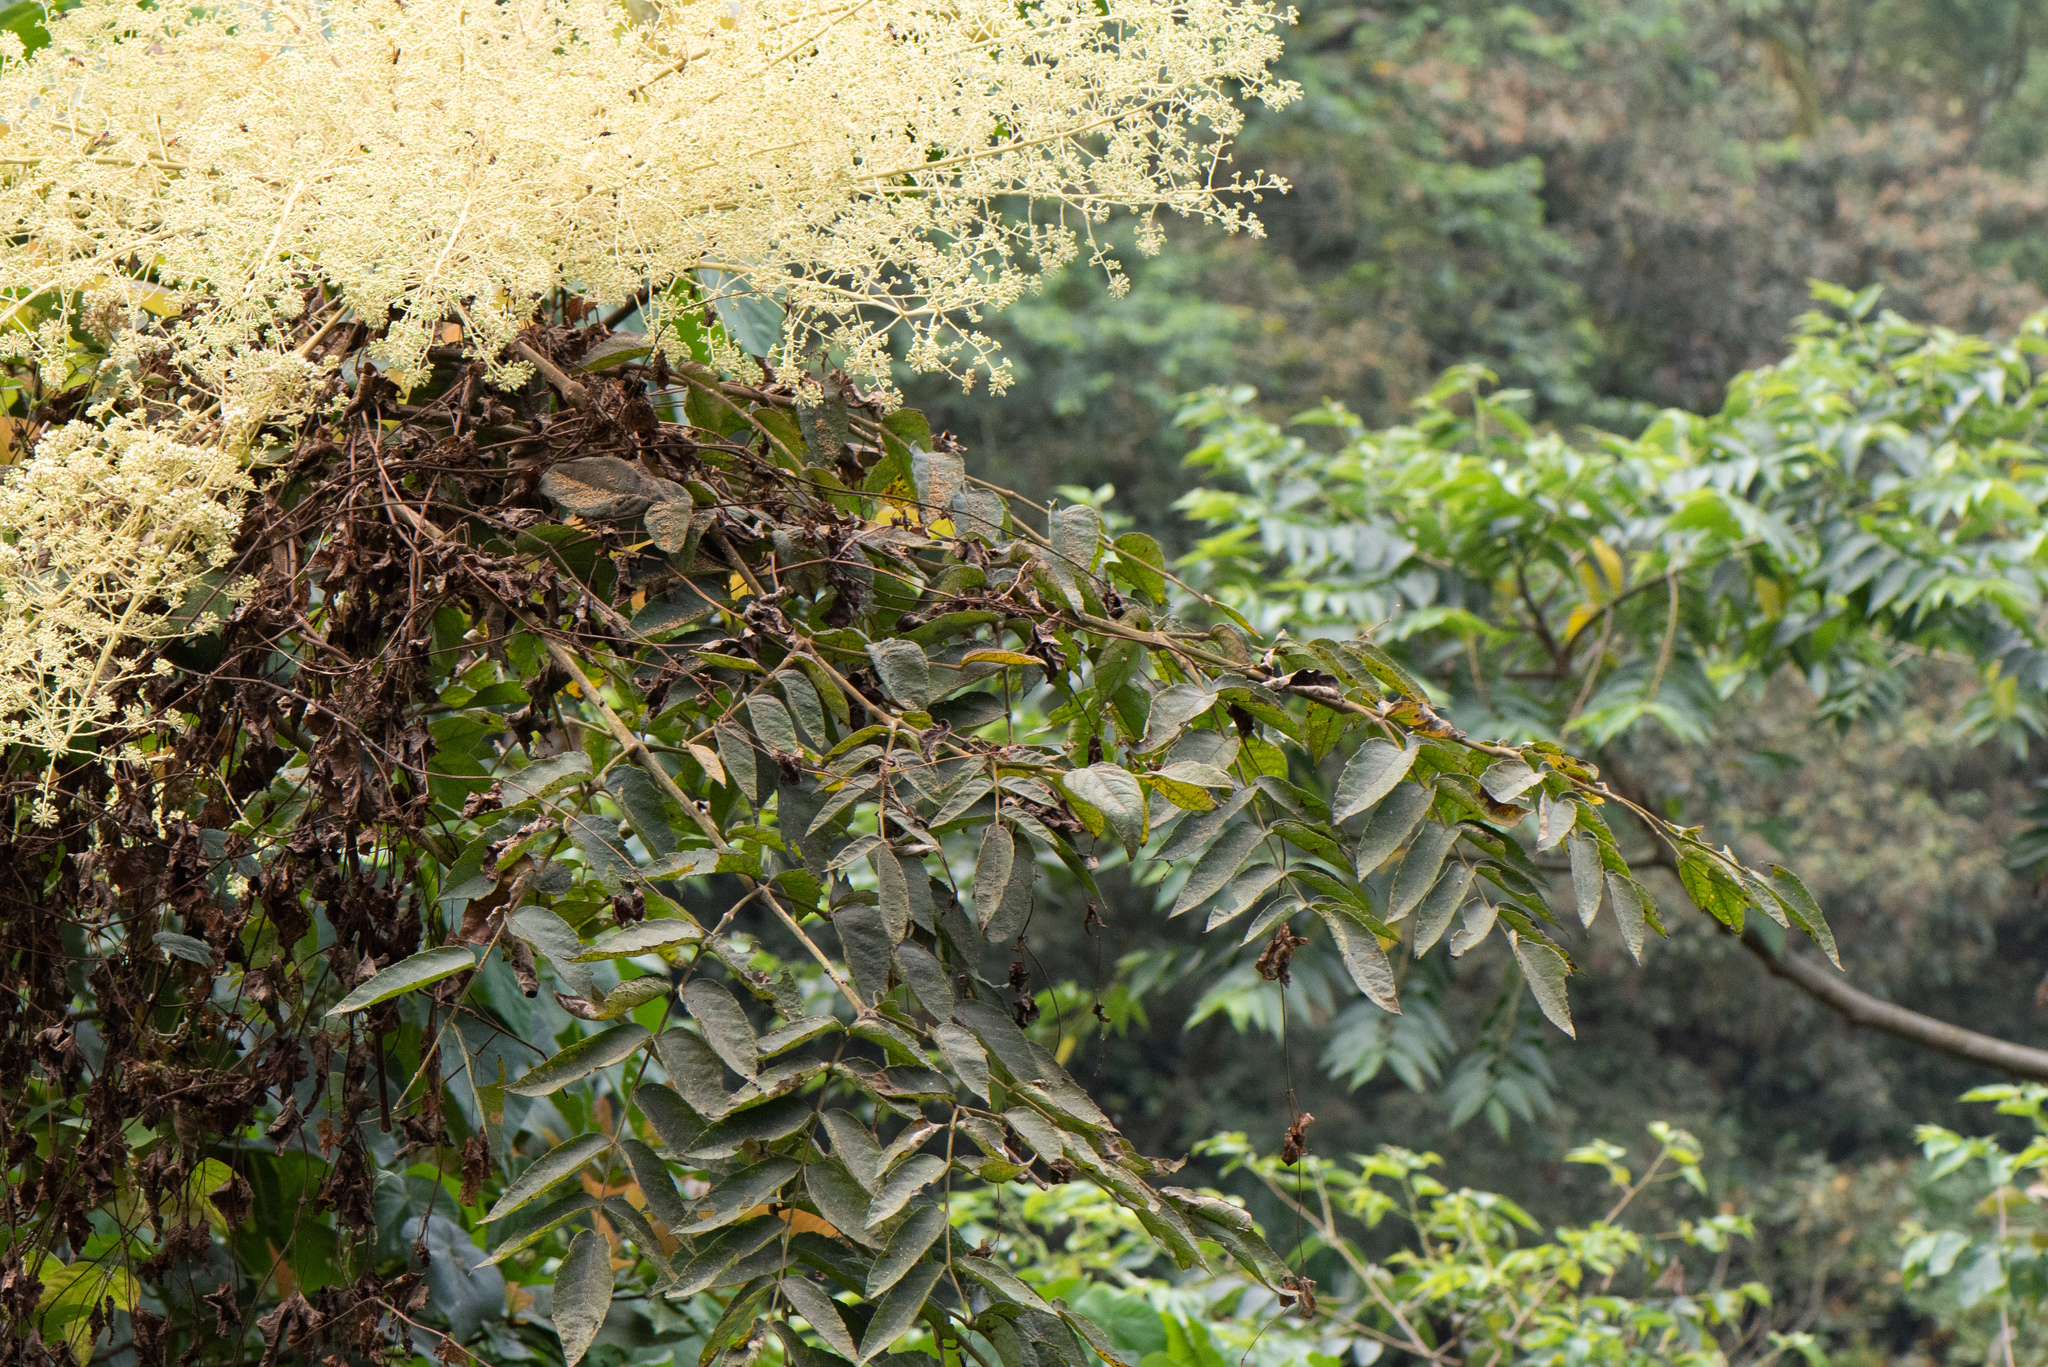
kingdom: Plantae
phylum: Tracheophyta
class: Magnoliopsida
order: Apiales
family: Araliaceae
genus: Aralia
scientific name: Aralia decaisneana
